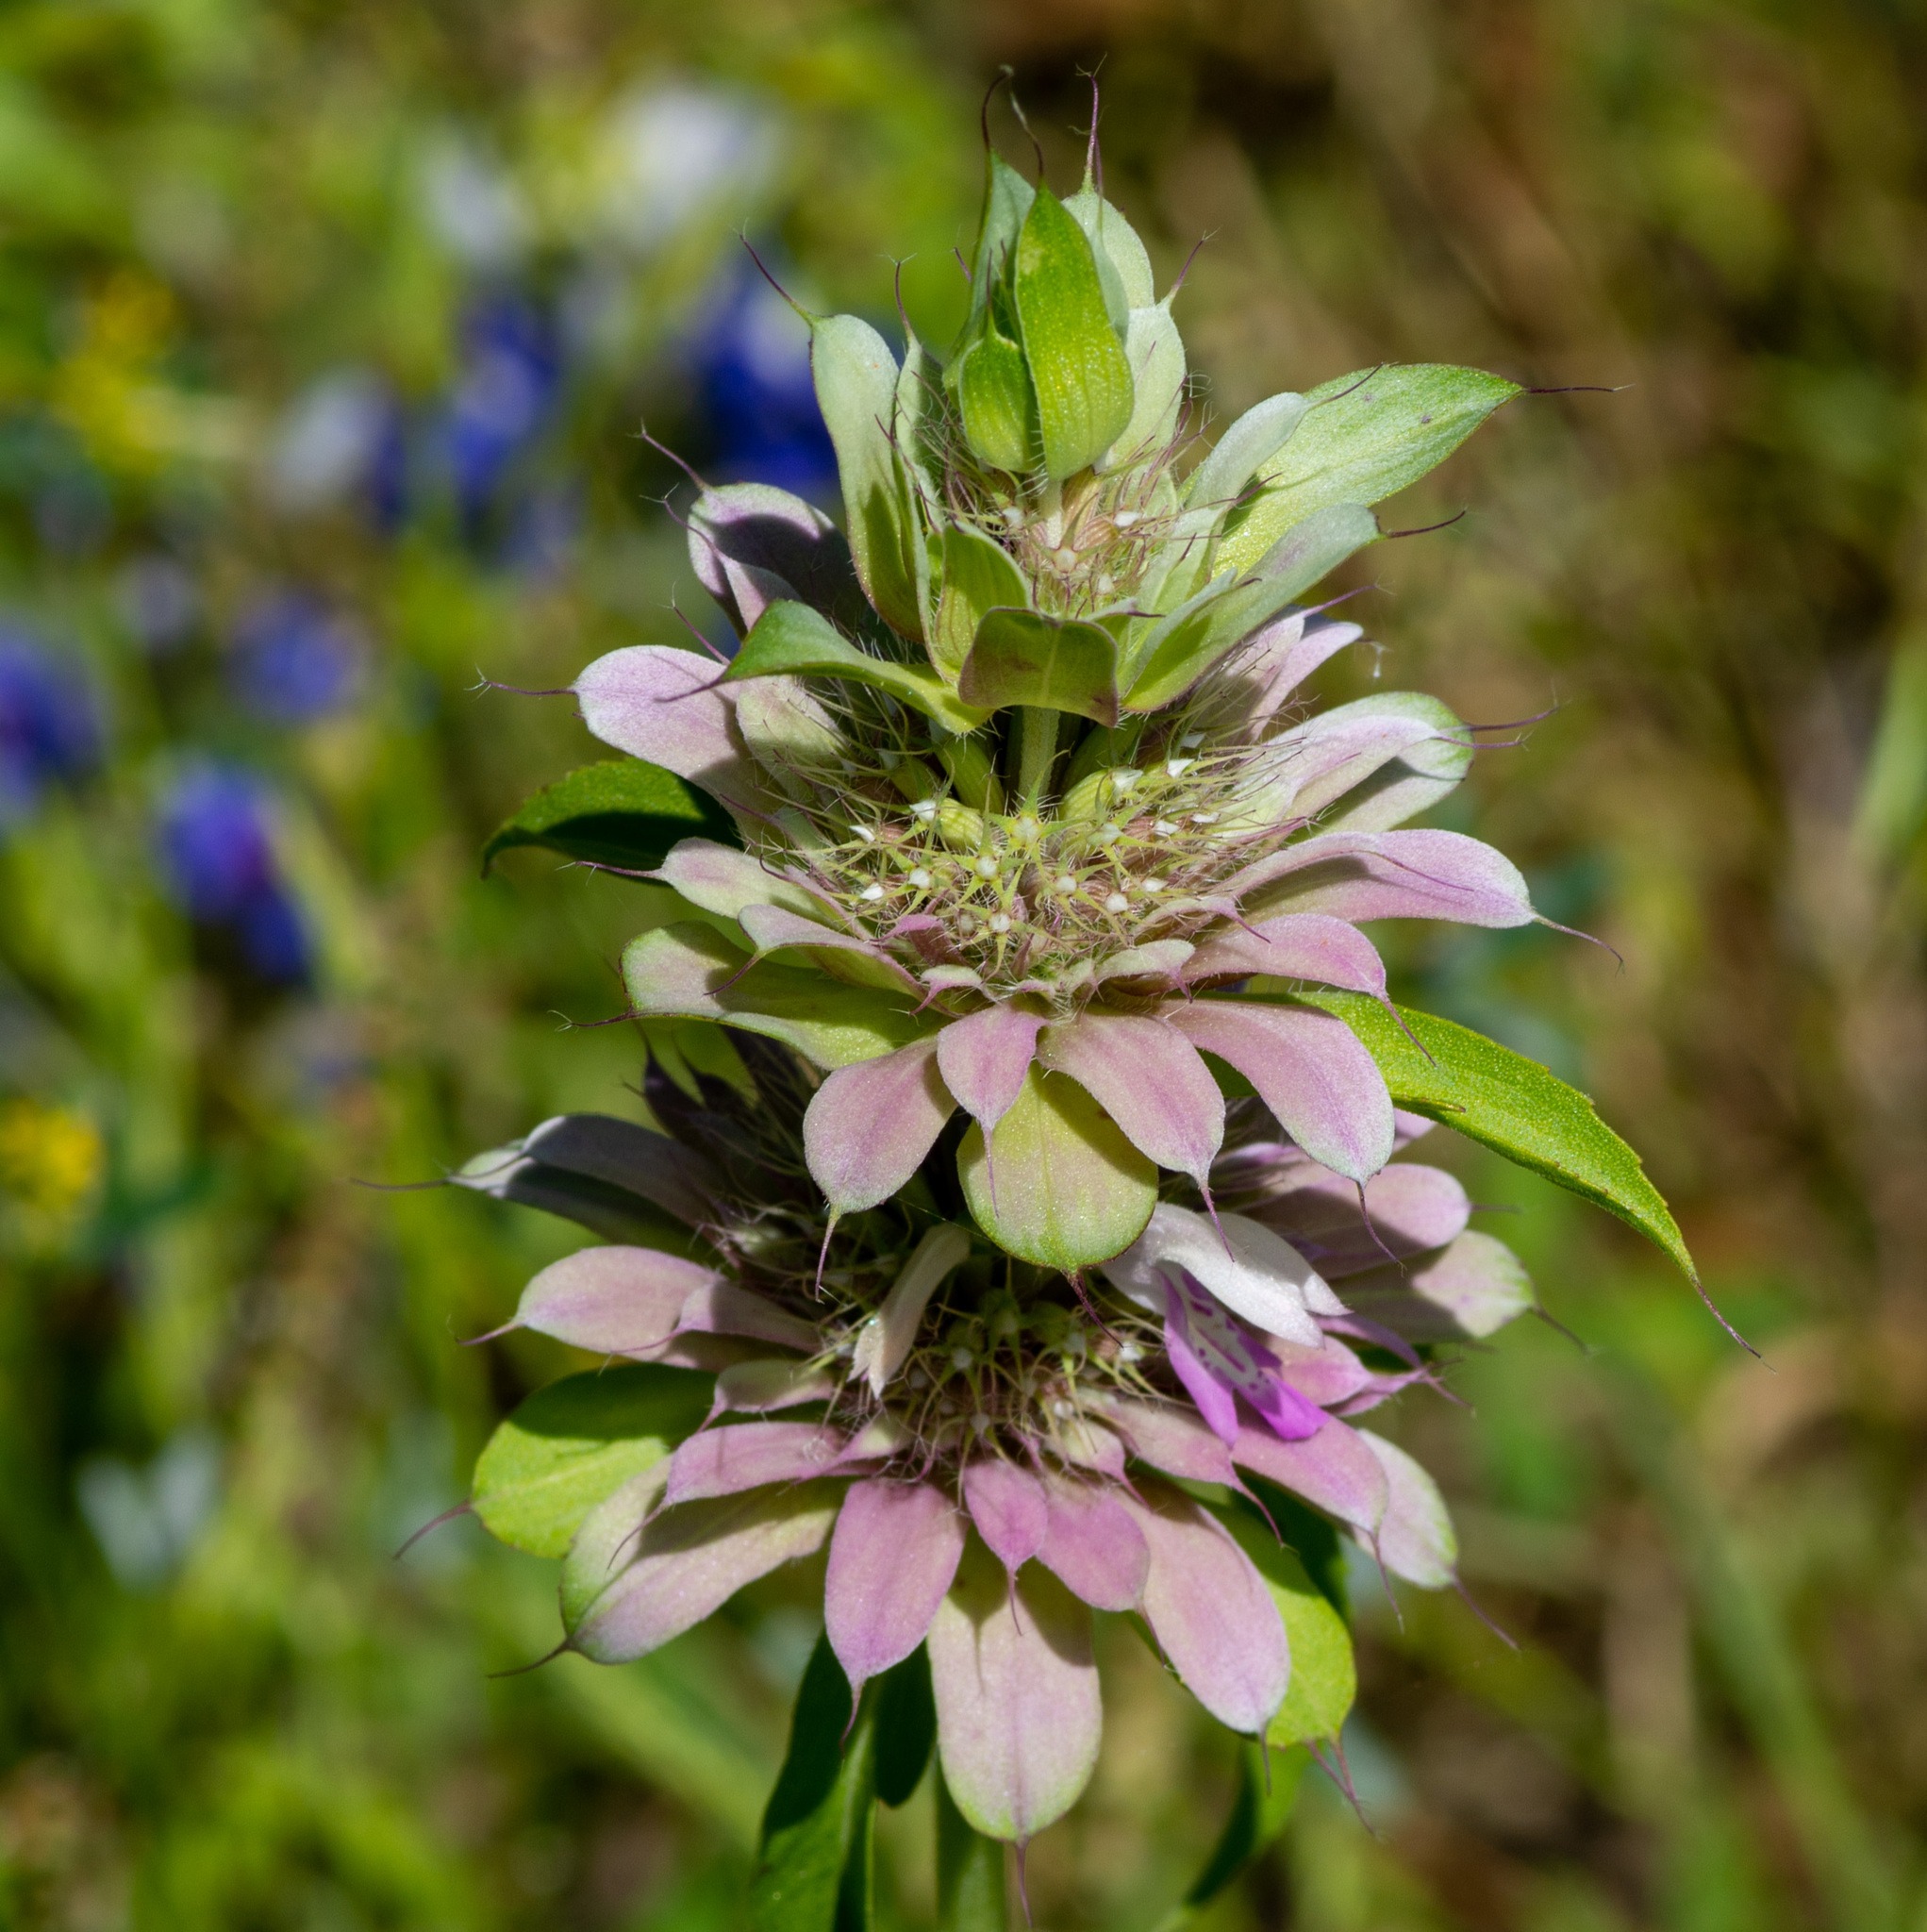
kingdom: Plantae
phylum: Tracheophyta
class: Magnoliopsida
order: Lamiales
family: Lamiaceae
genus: Monarda
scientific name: Monarda citriodora
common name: Lemon beebalm
